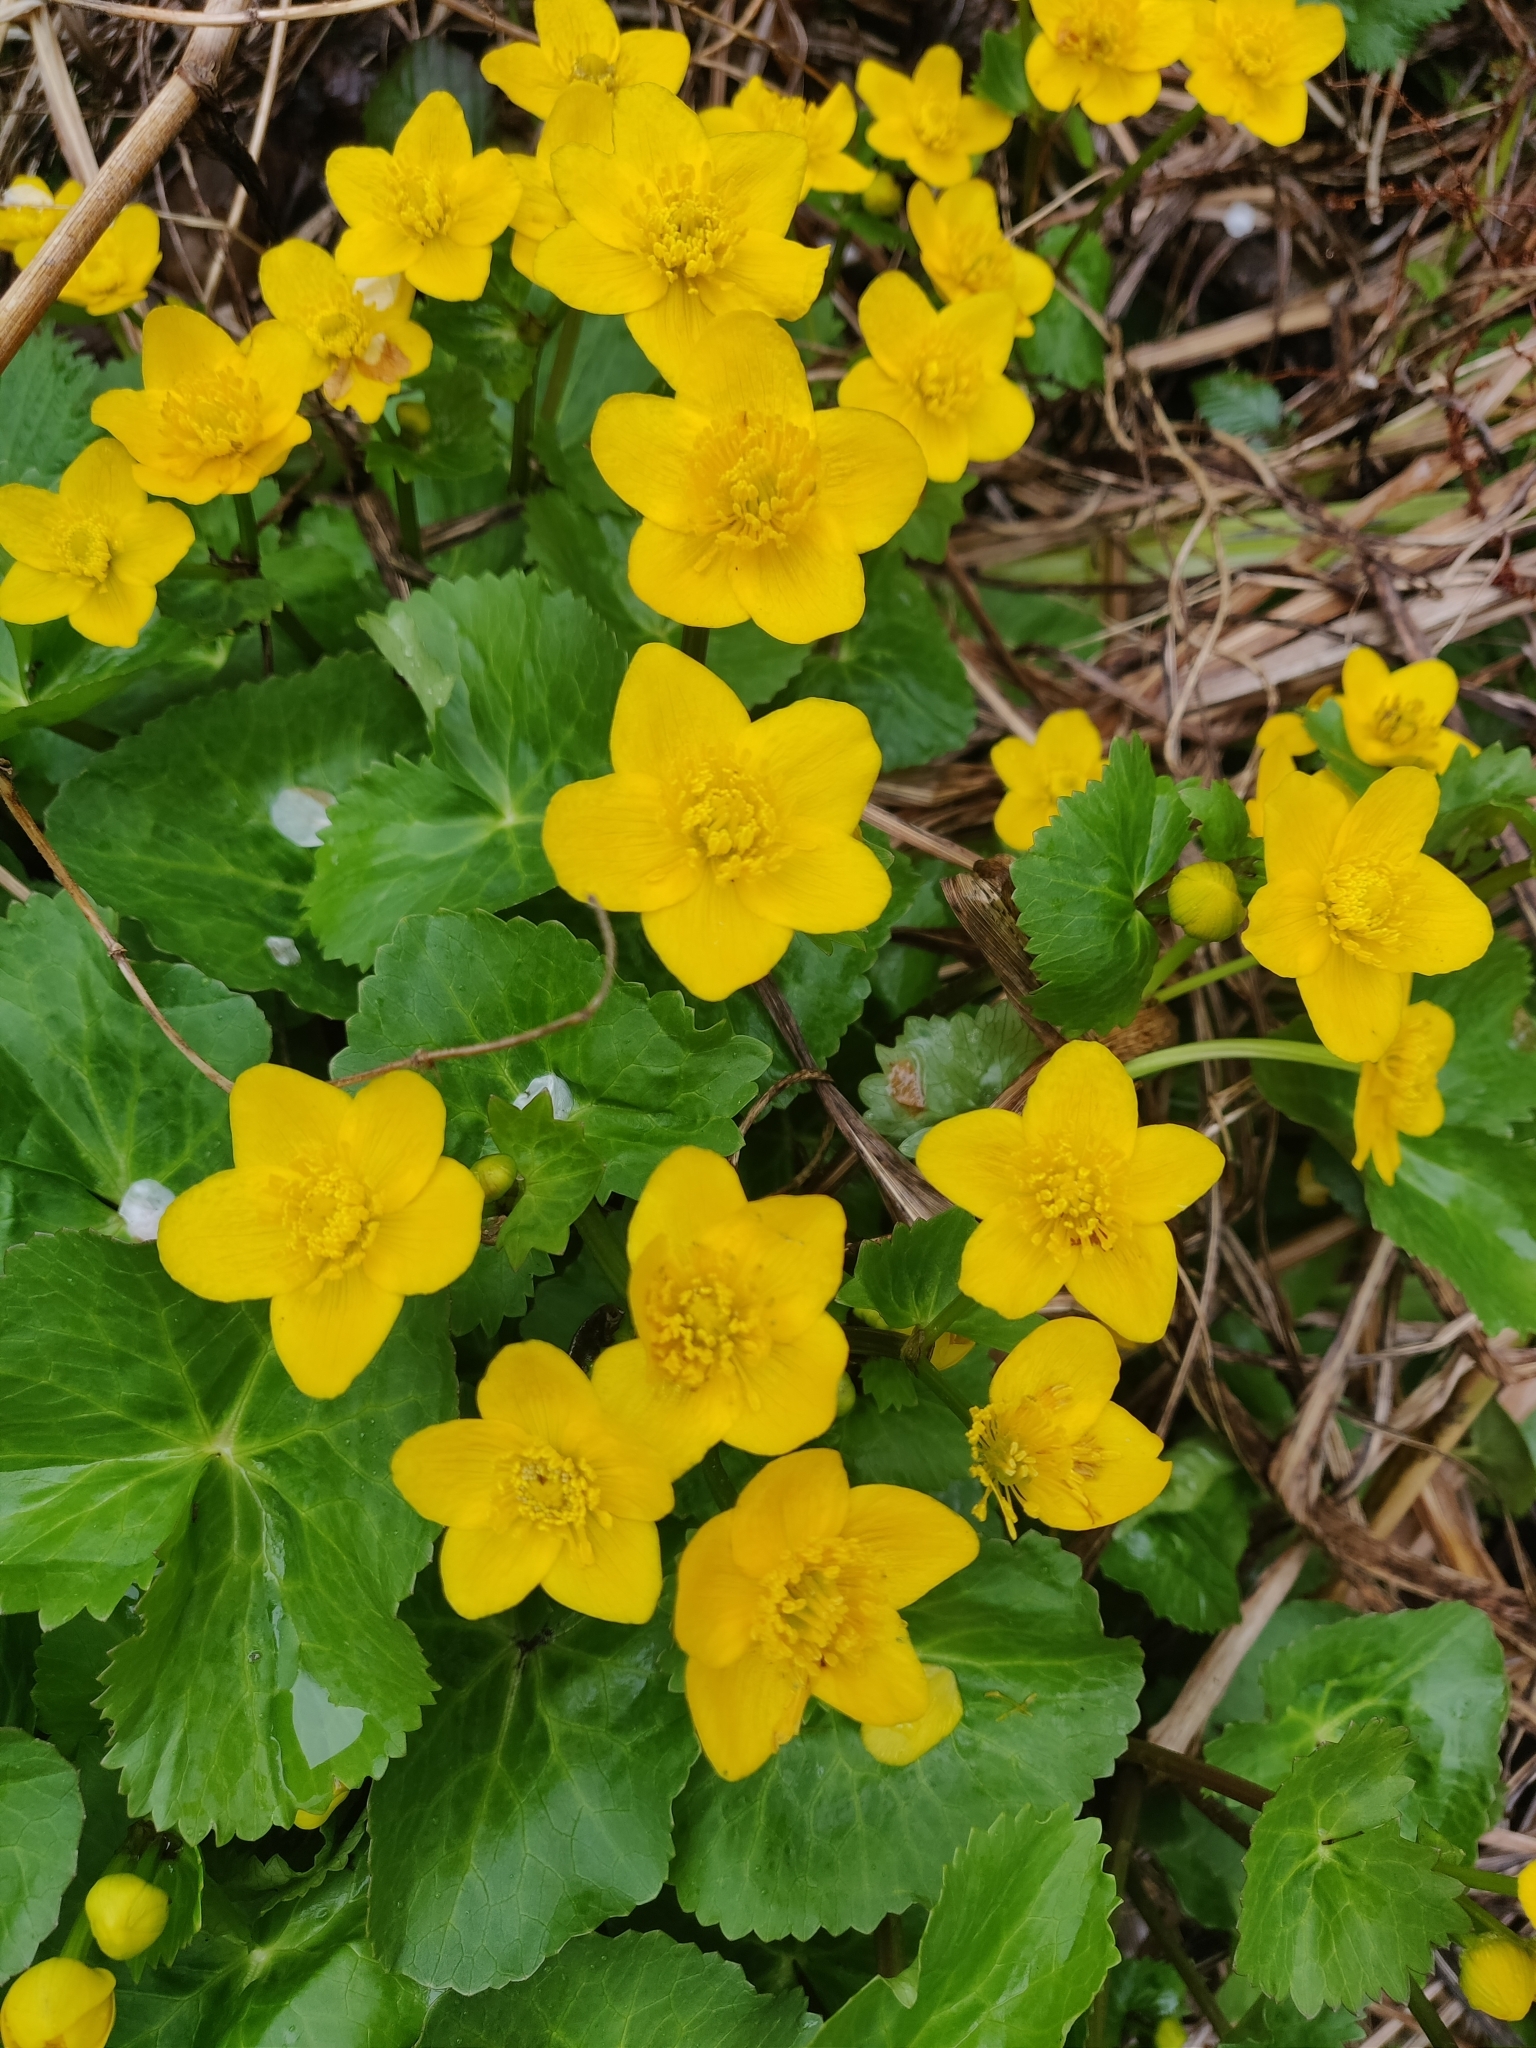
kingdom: Plantae
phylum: Tracheophyta
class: Magnoliopsida
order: Ranunculales
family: Ranunculaceae
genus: Caltha
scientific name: Caltha palustris
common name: Marsh marigold
